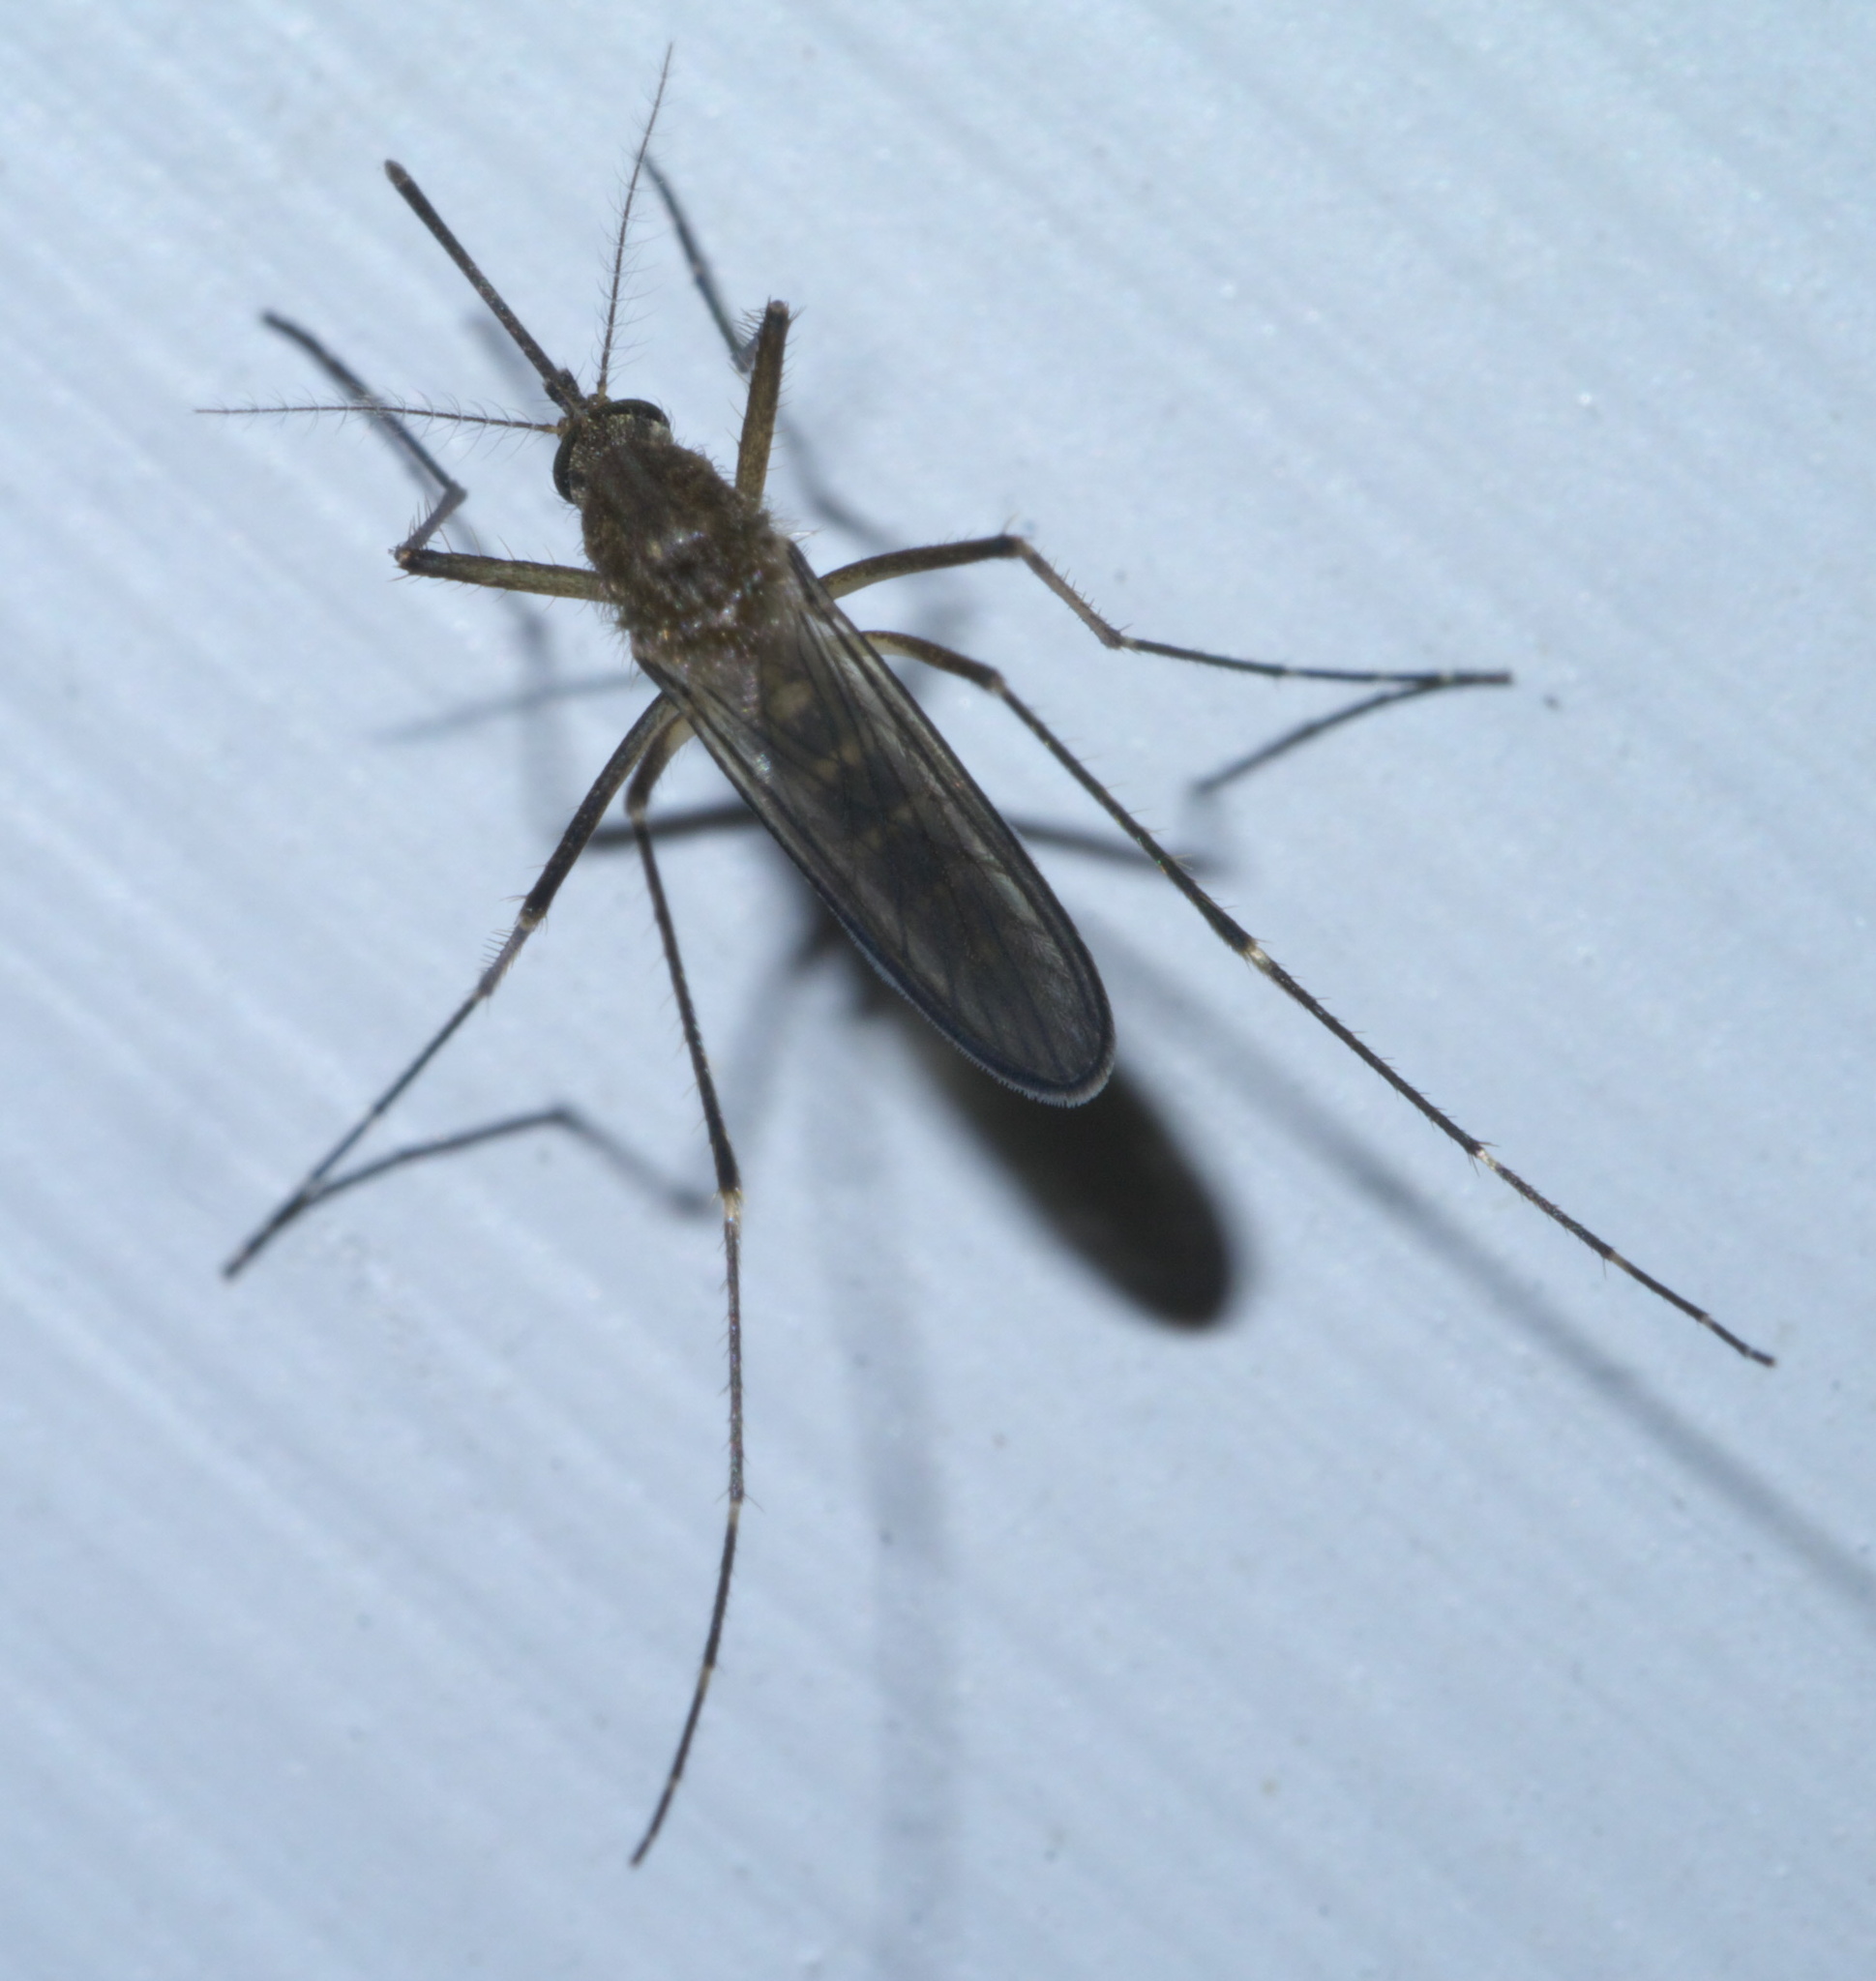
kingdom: Animalia
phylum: Arthropoda
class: Insecta
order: Diptera
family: Culicidae
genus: Aedes
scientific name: Aedes vexans
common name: Inland floodwater mosquito
